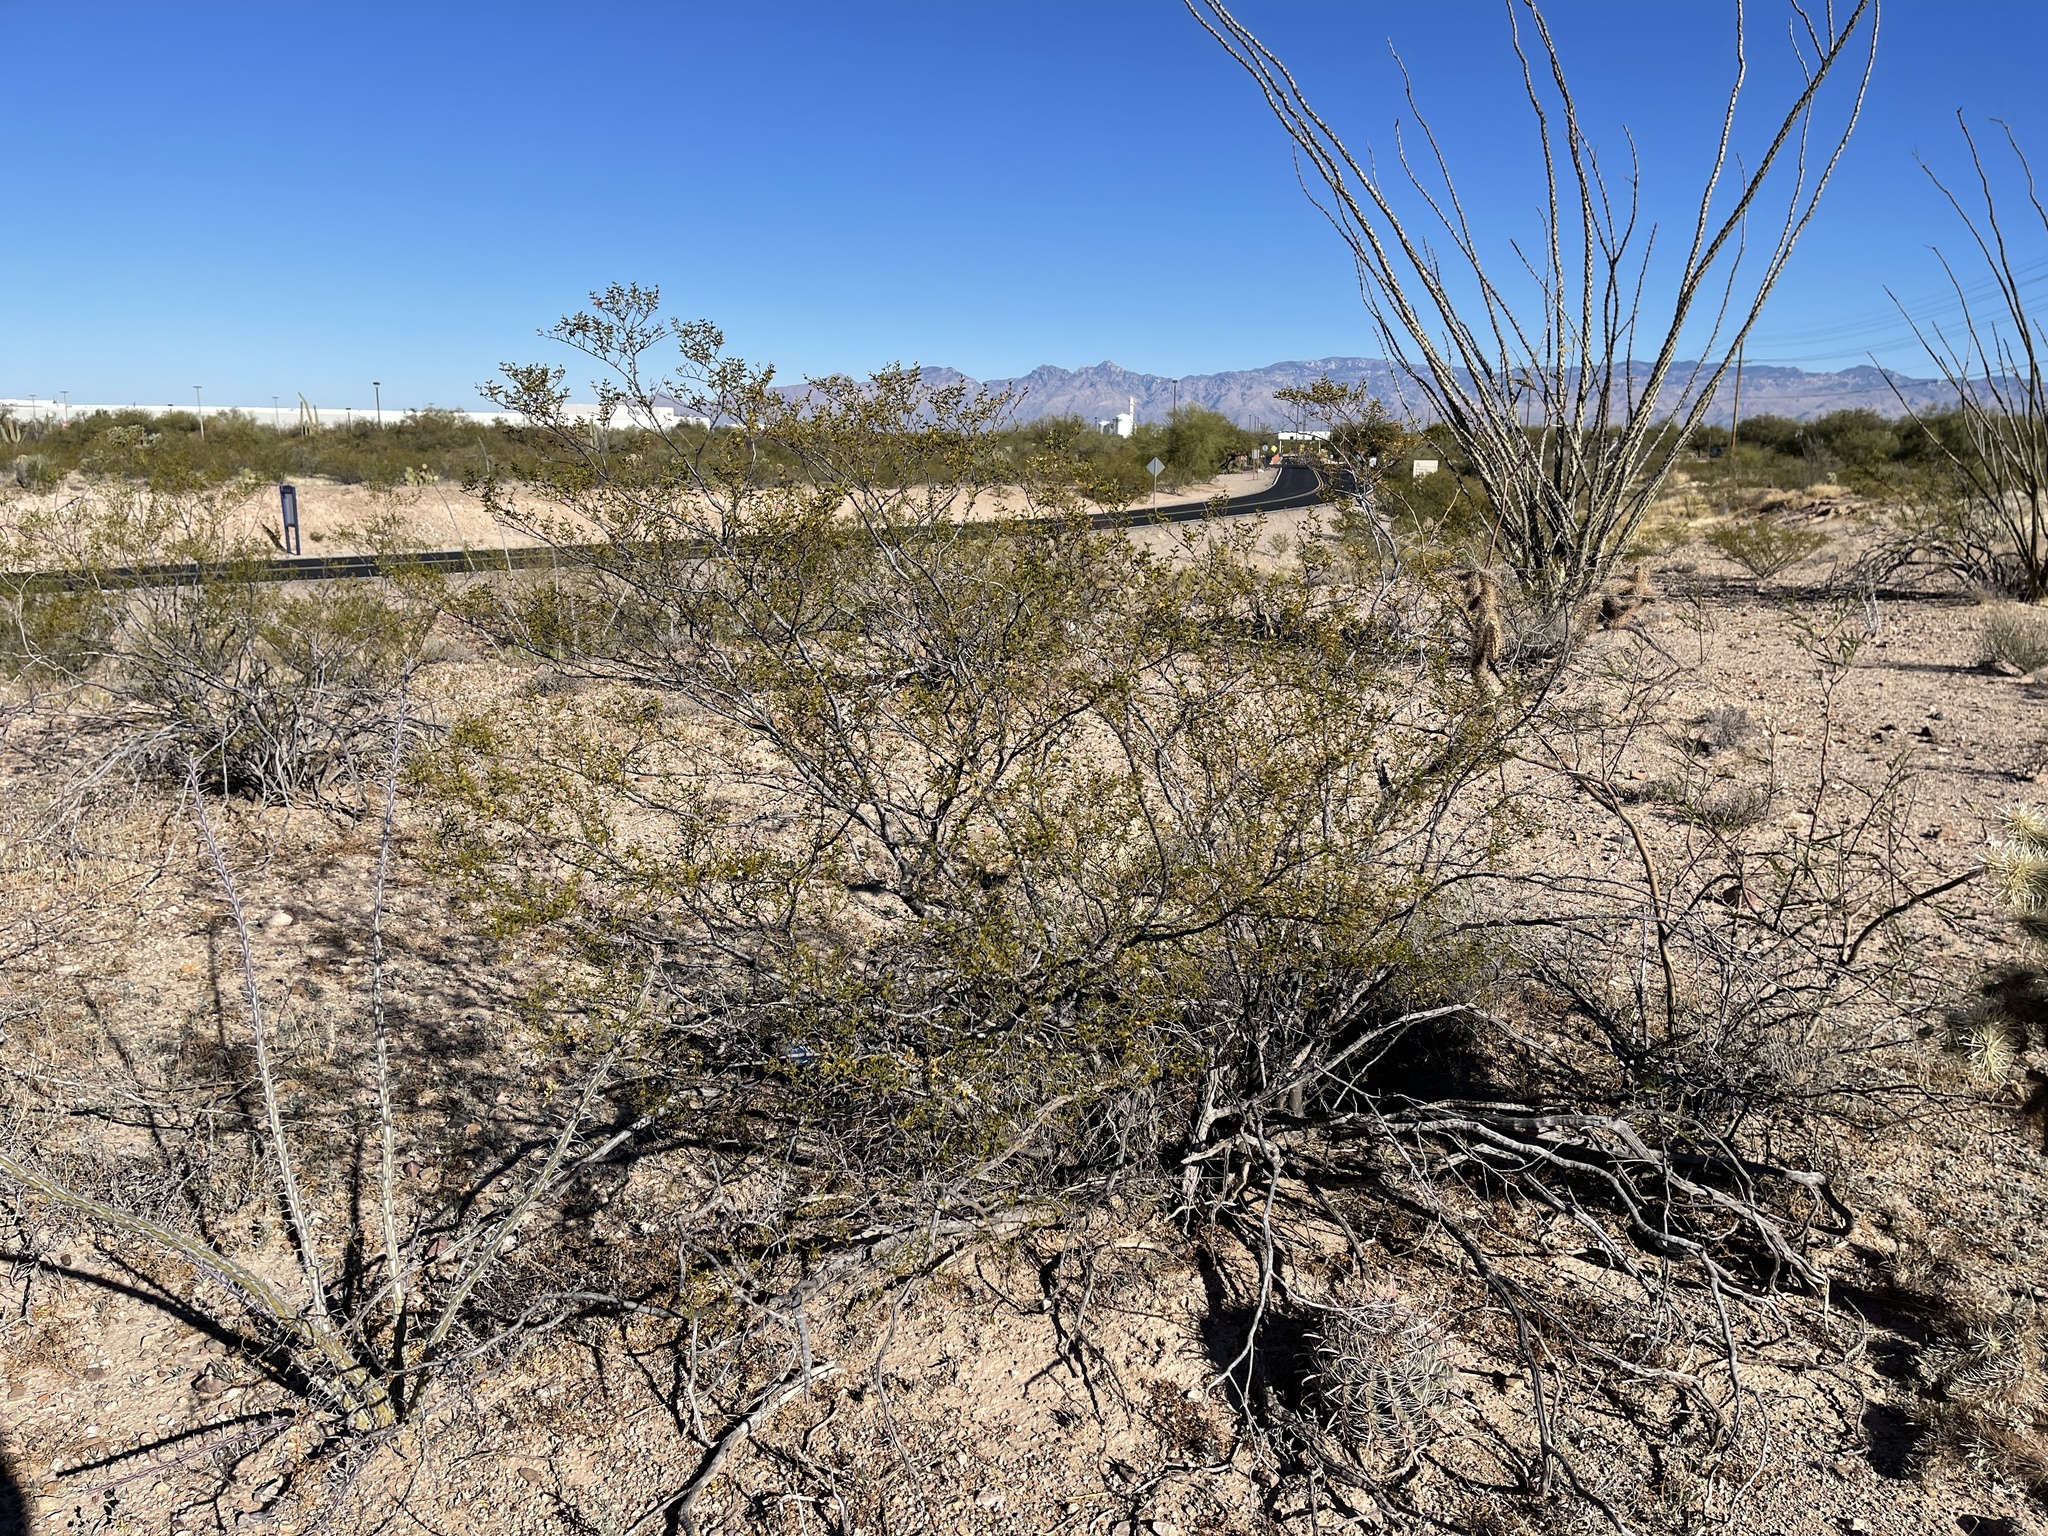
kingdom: Plantae
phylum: Tracheophyta
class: Magnoliopsida
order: Zygophyllales
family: Zygophyllaceae
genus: Larrea
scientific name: Larrea tridentata
